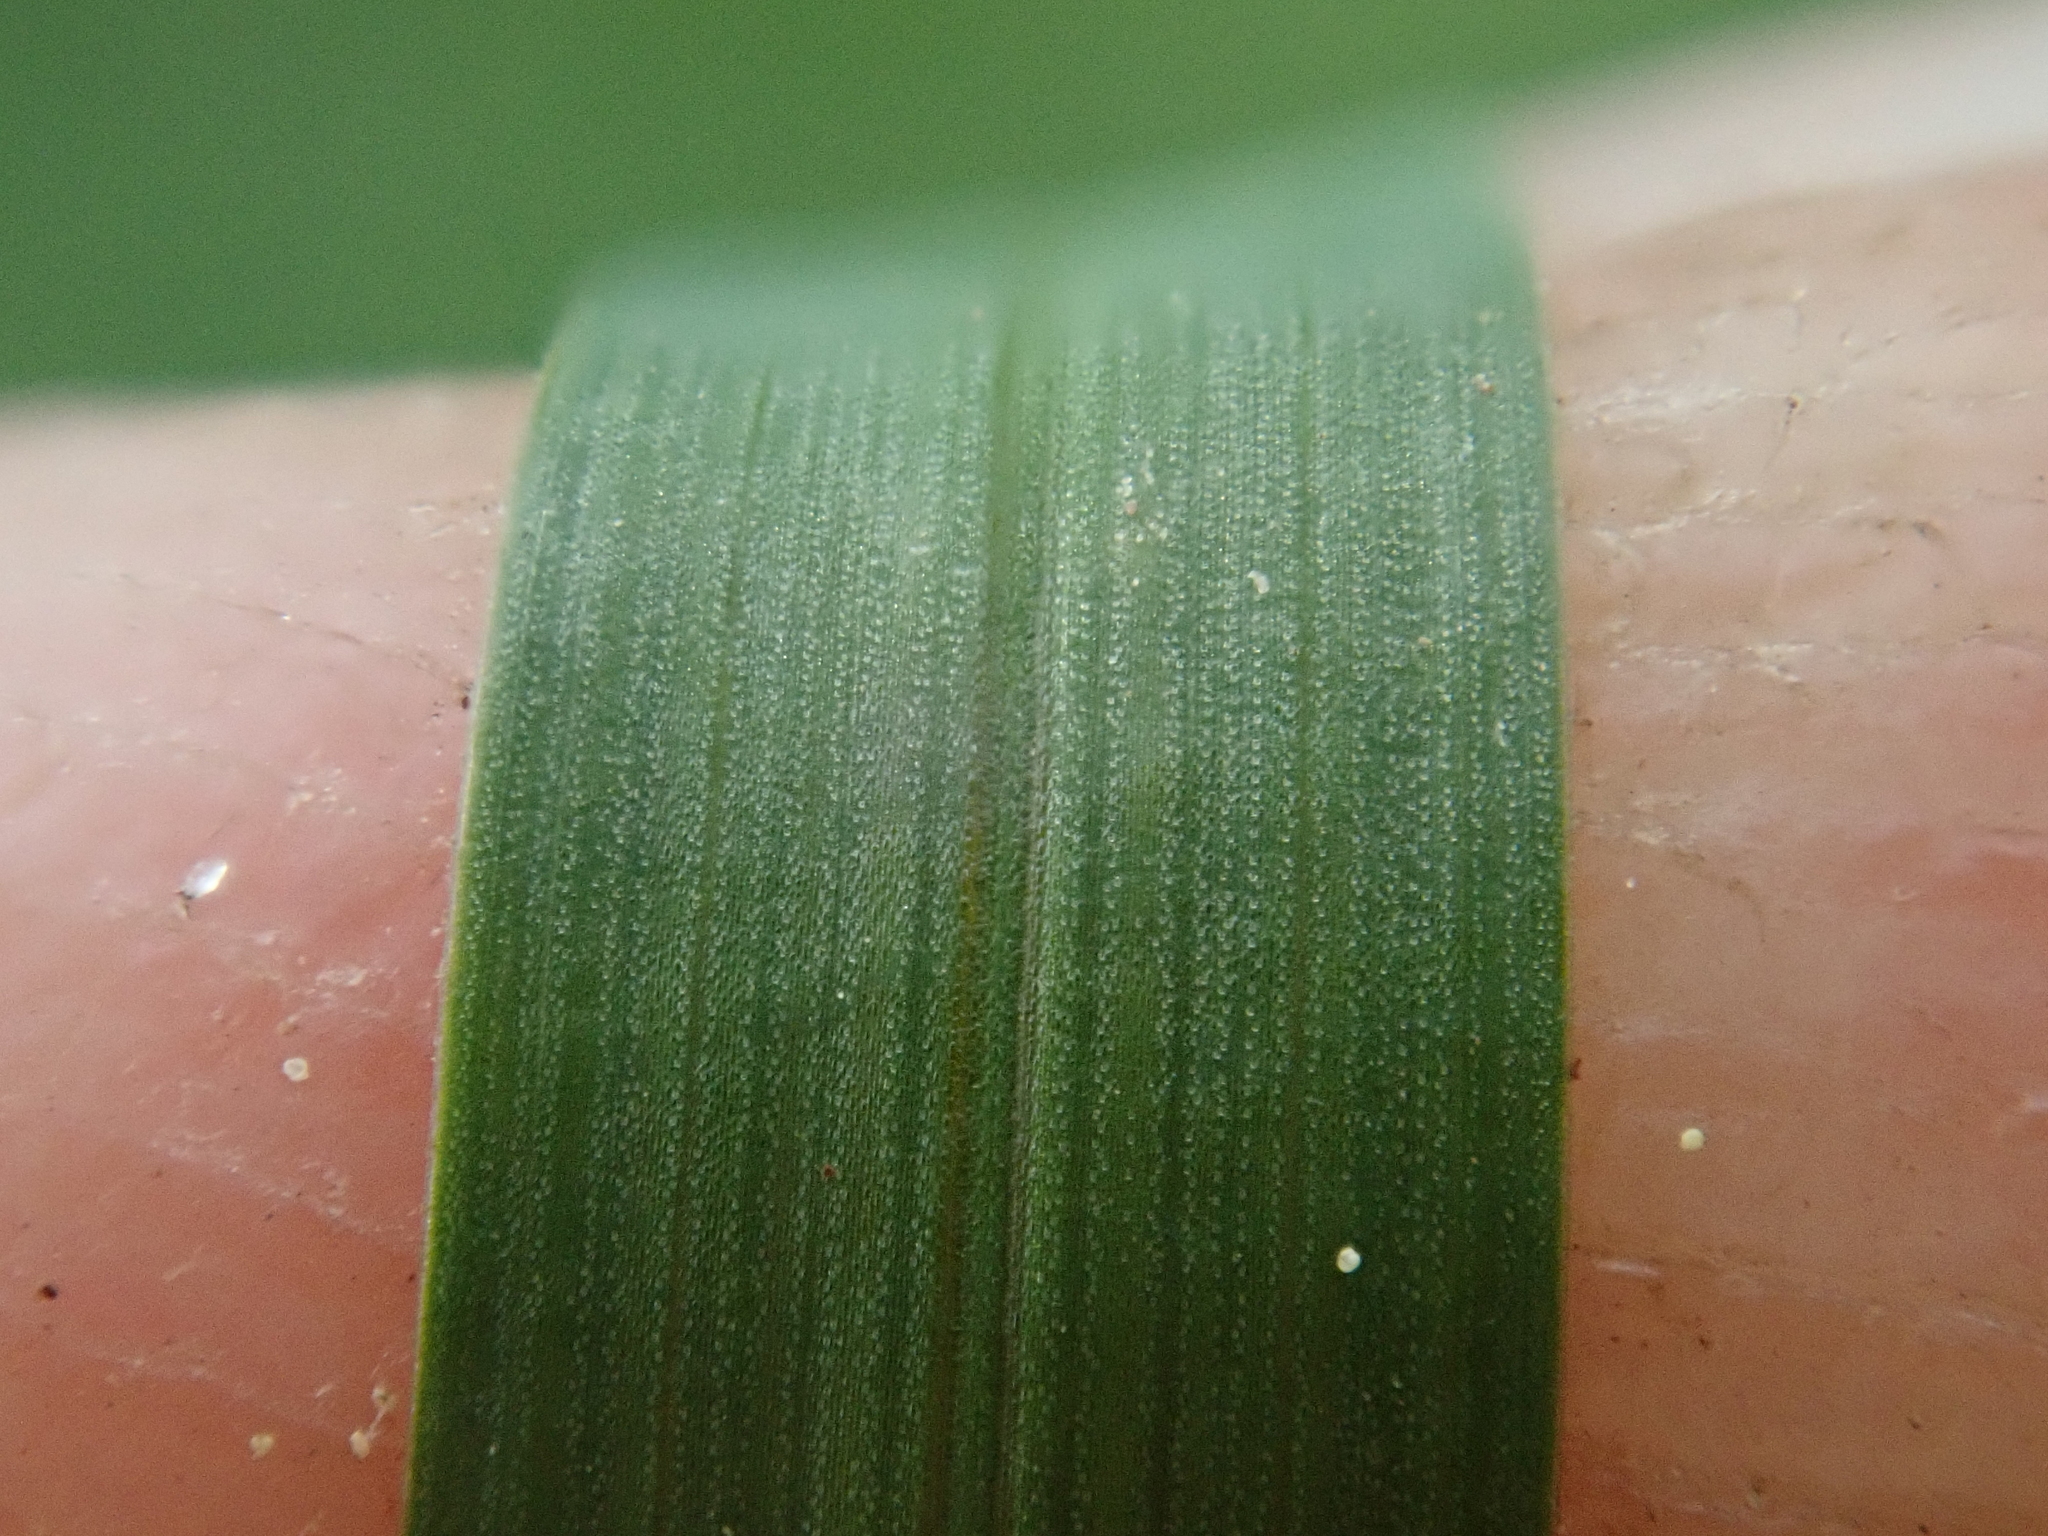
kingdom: Plantae
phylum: Tracheophyta
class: Liliopsida
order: Poales
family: Poaceae
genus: Poa
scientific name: Poa annua
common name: Annual bluegrass
